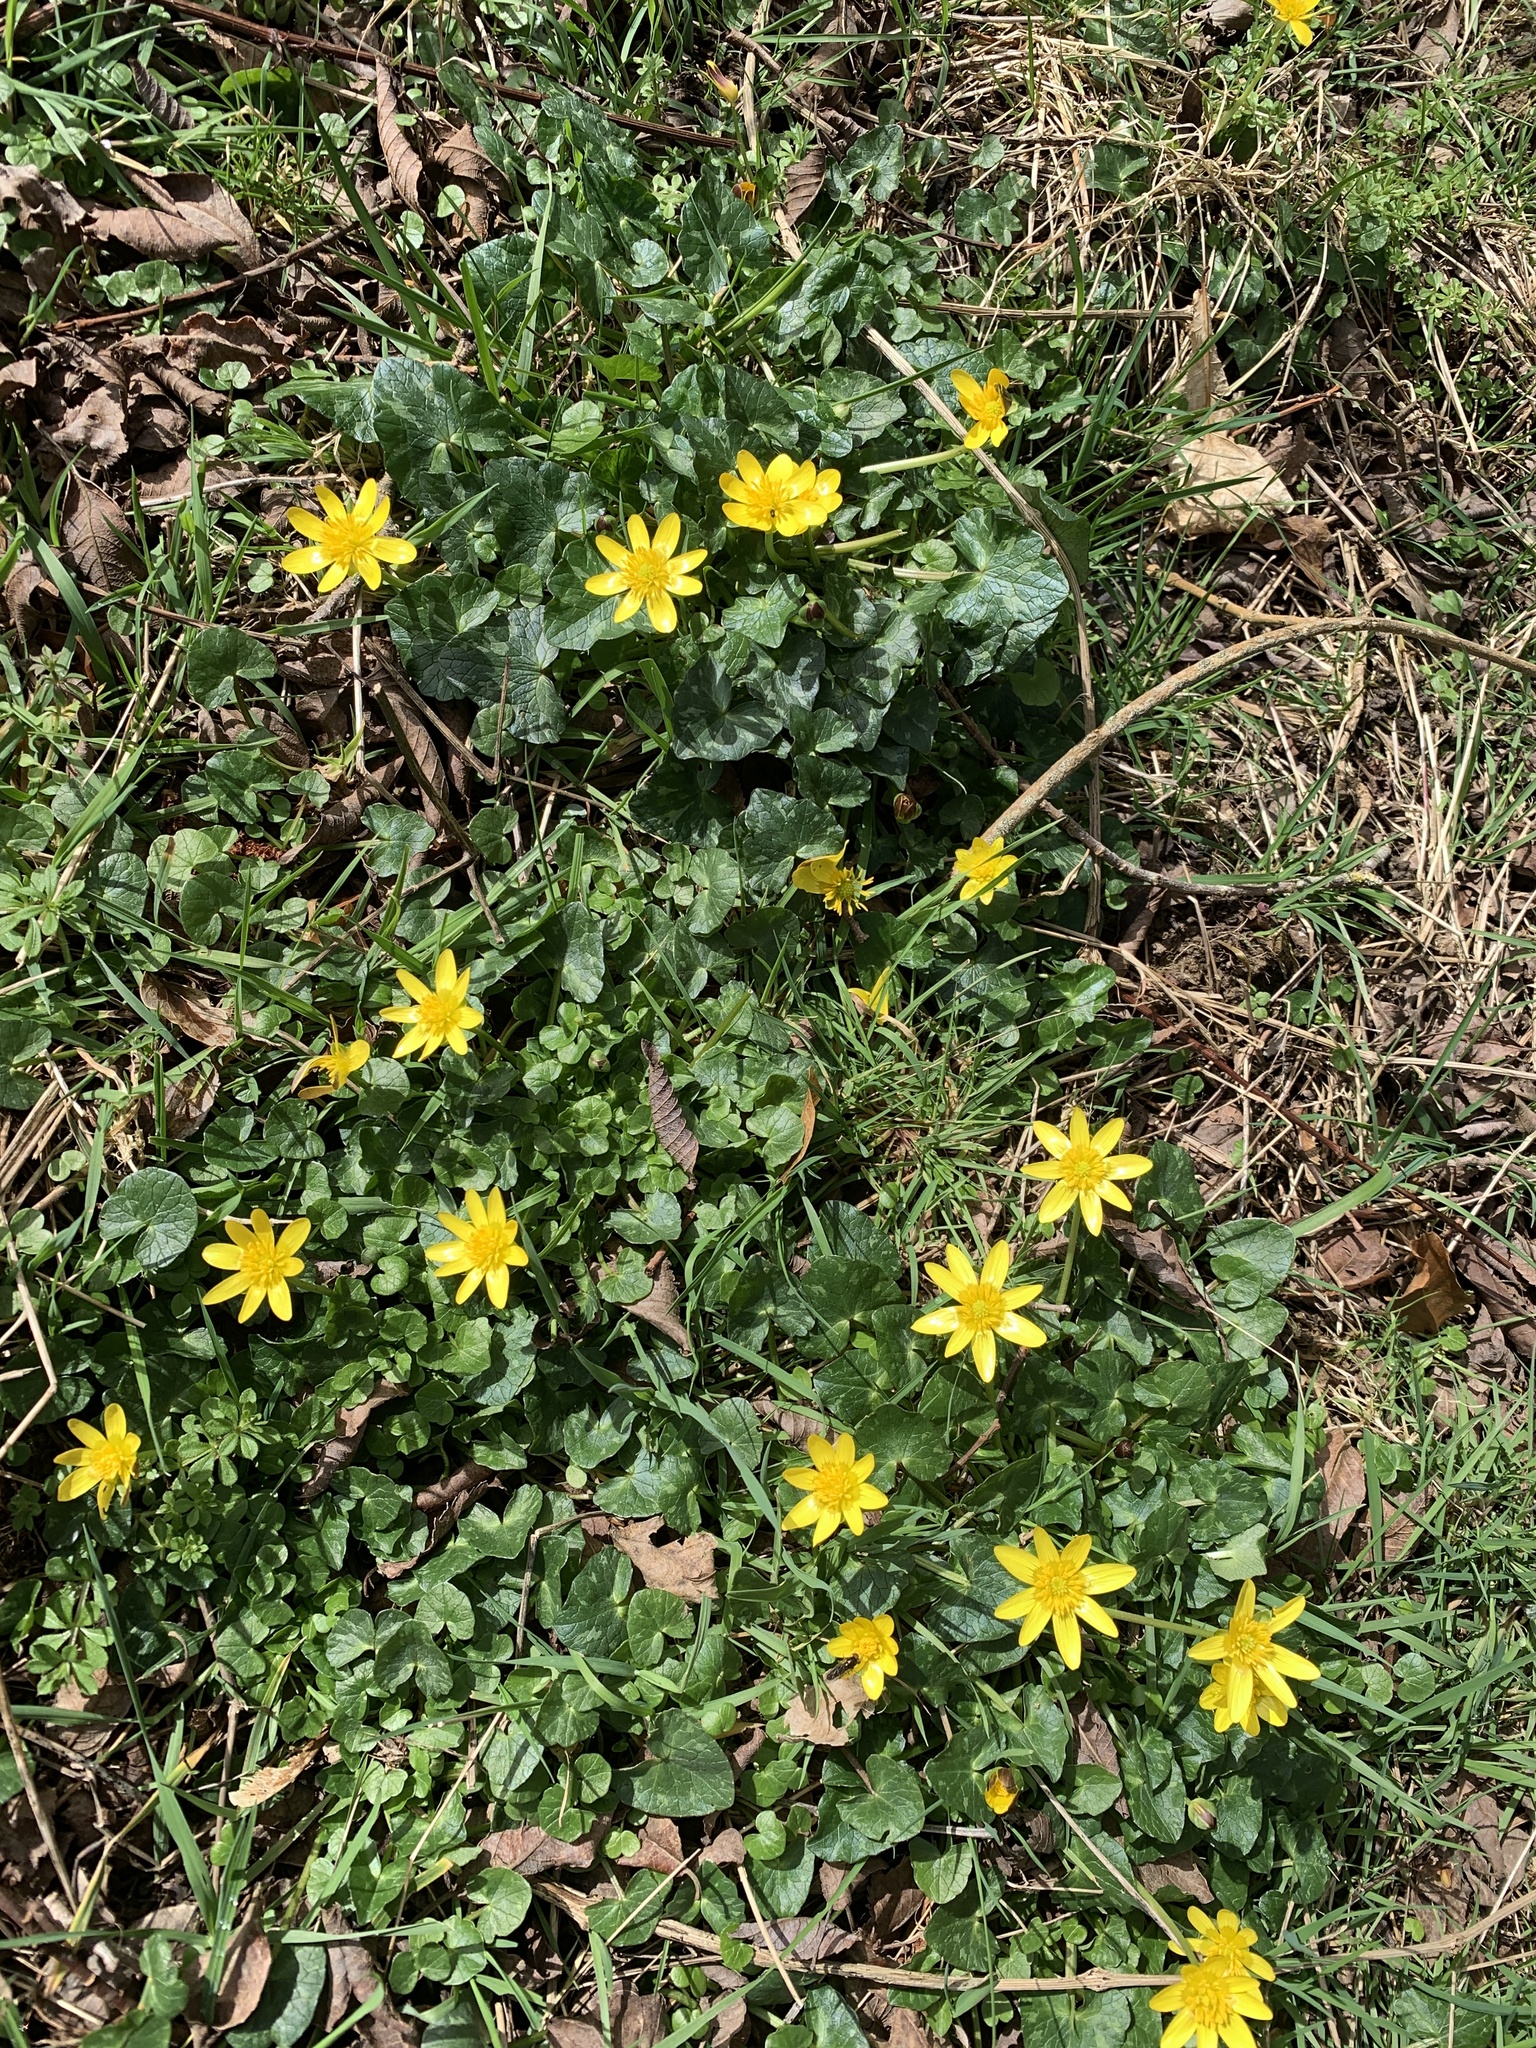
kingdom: Plantae
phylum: Tracheophyta
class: Magnoliopsida
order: Ranunculales
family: Ranunculaceae
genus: Ficaria
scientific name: Ficaria verna
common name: Lesser celandine
